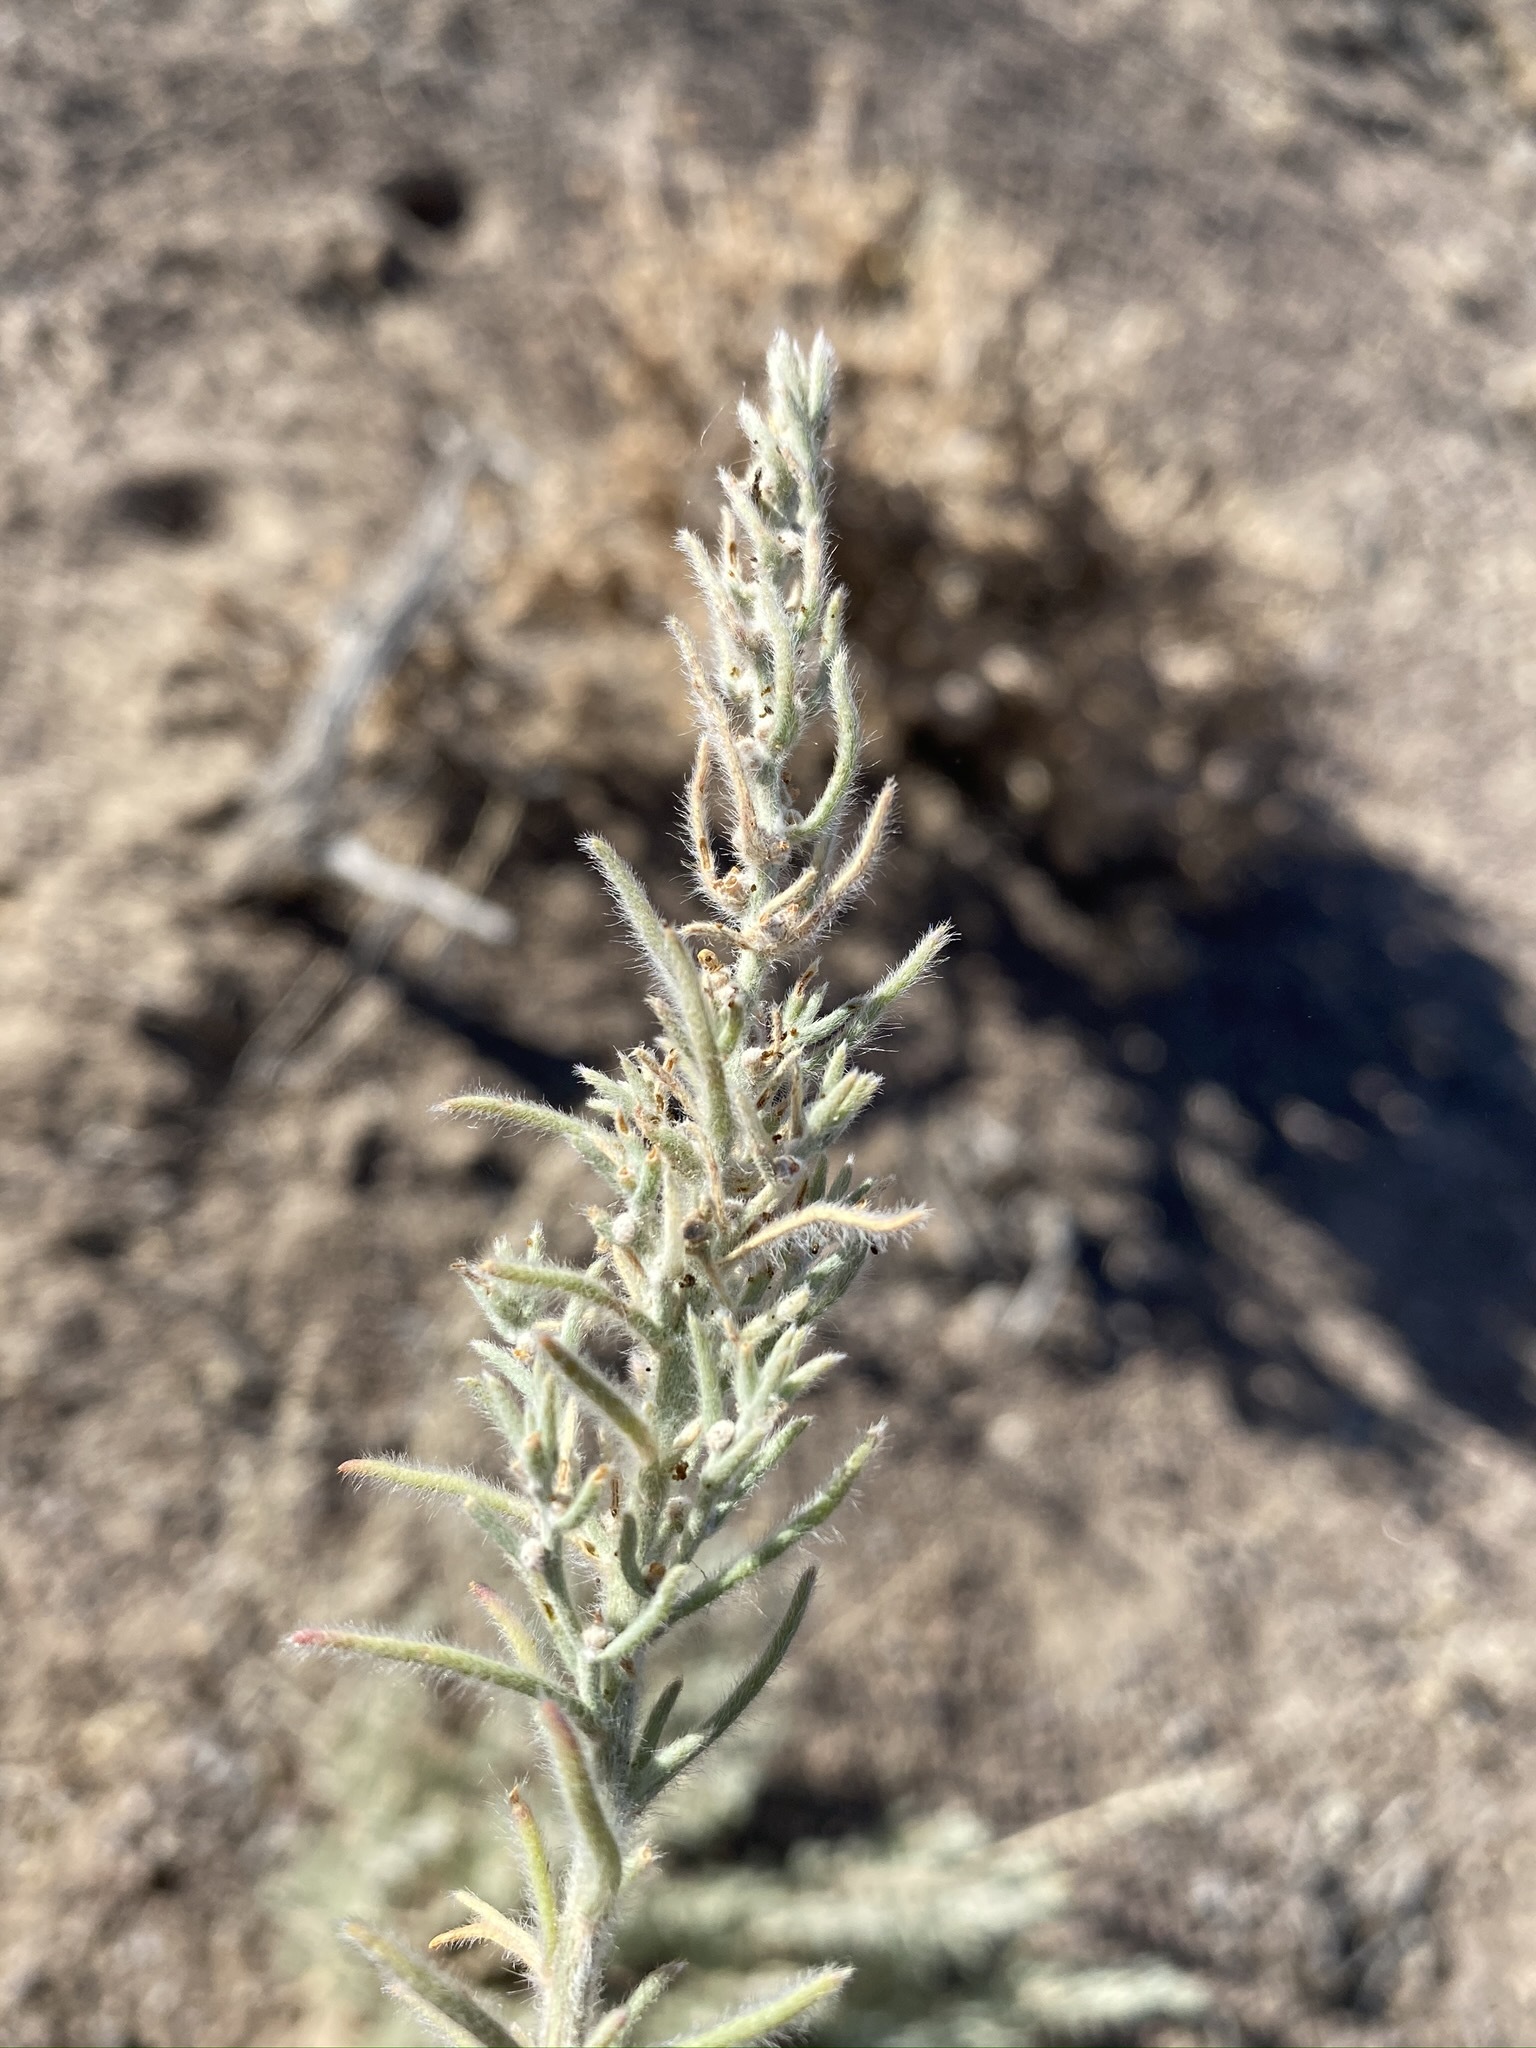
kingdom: Plantae
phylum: Tracheophyta
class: Magnoliopsida
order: Caryophyllales
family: Amaranthaceae
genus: Neokochia
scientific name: Neokochia americana
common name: Perennial summer-cypress
